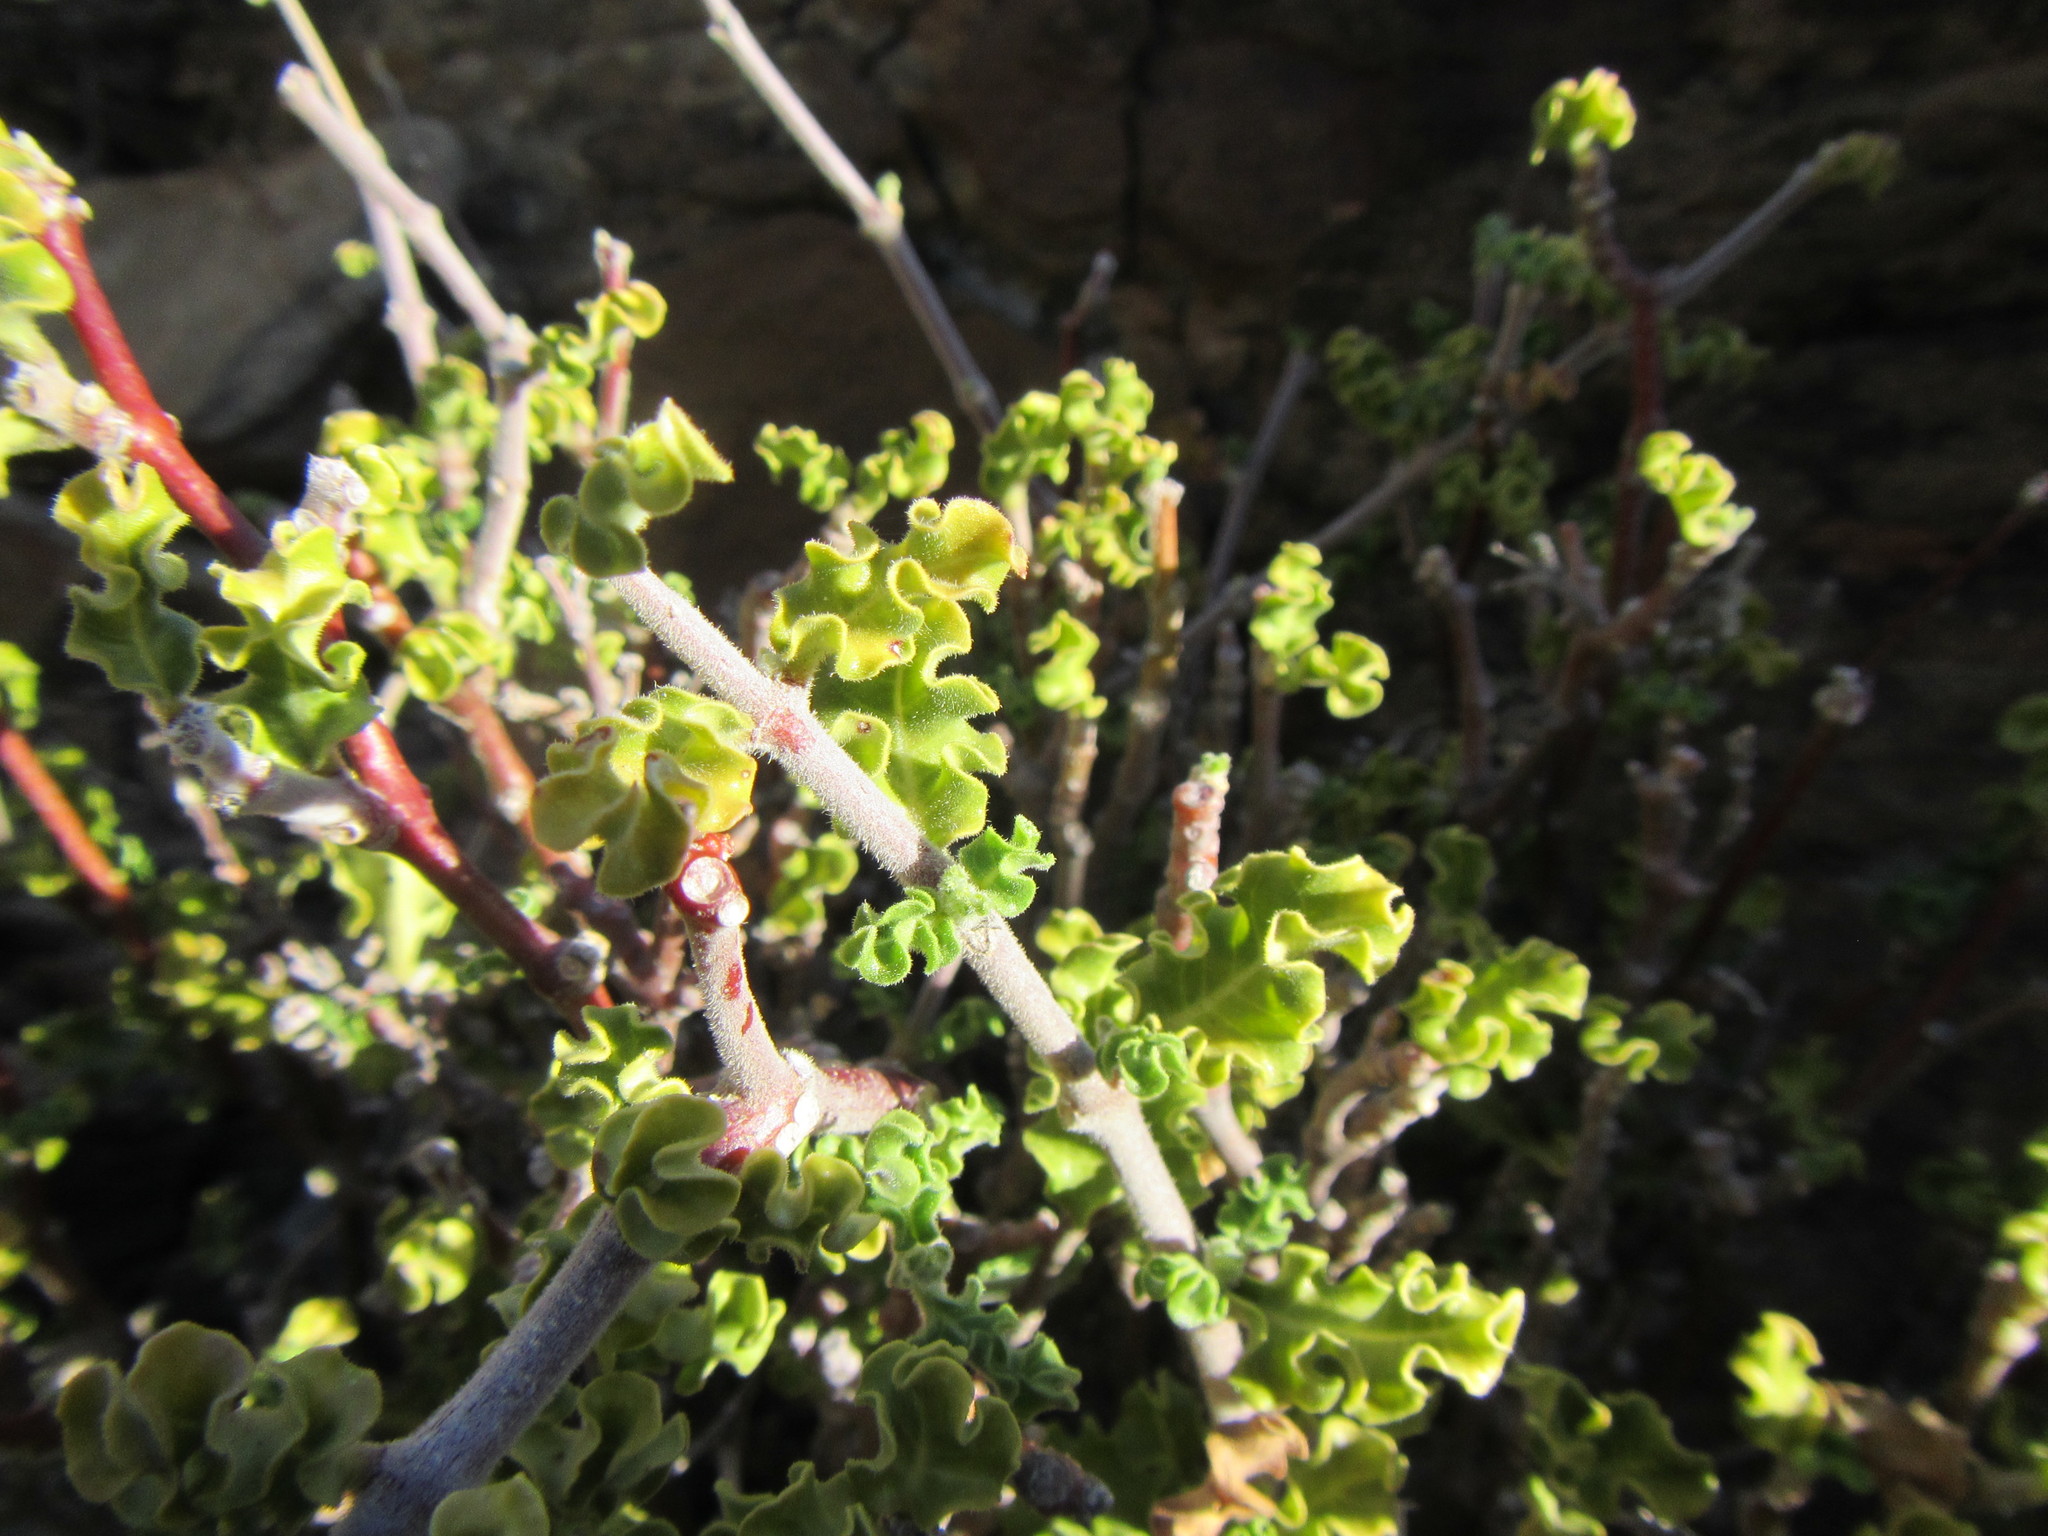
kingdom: Plantae
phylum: Tracheophyta
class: Magnoliopsida
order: Gentianales
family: Apocynaceae
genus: Fockea
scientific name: Fockea capensis
